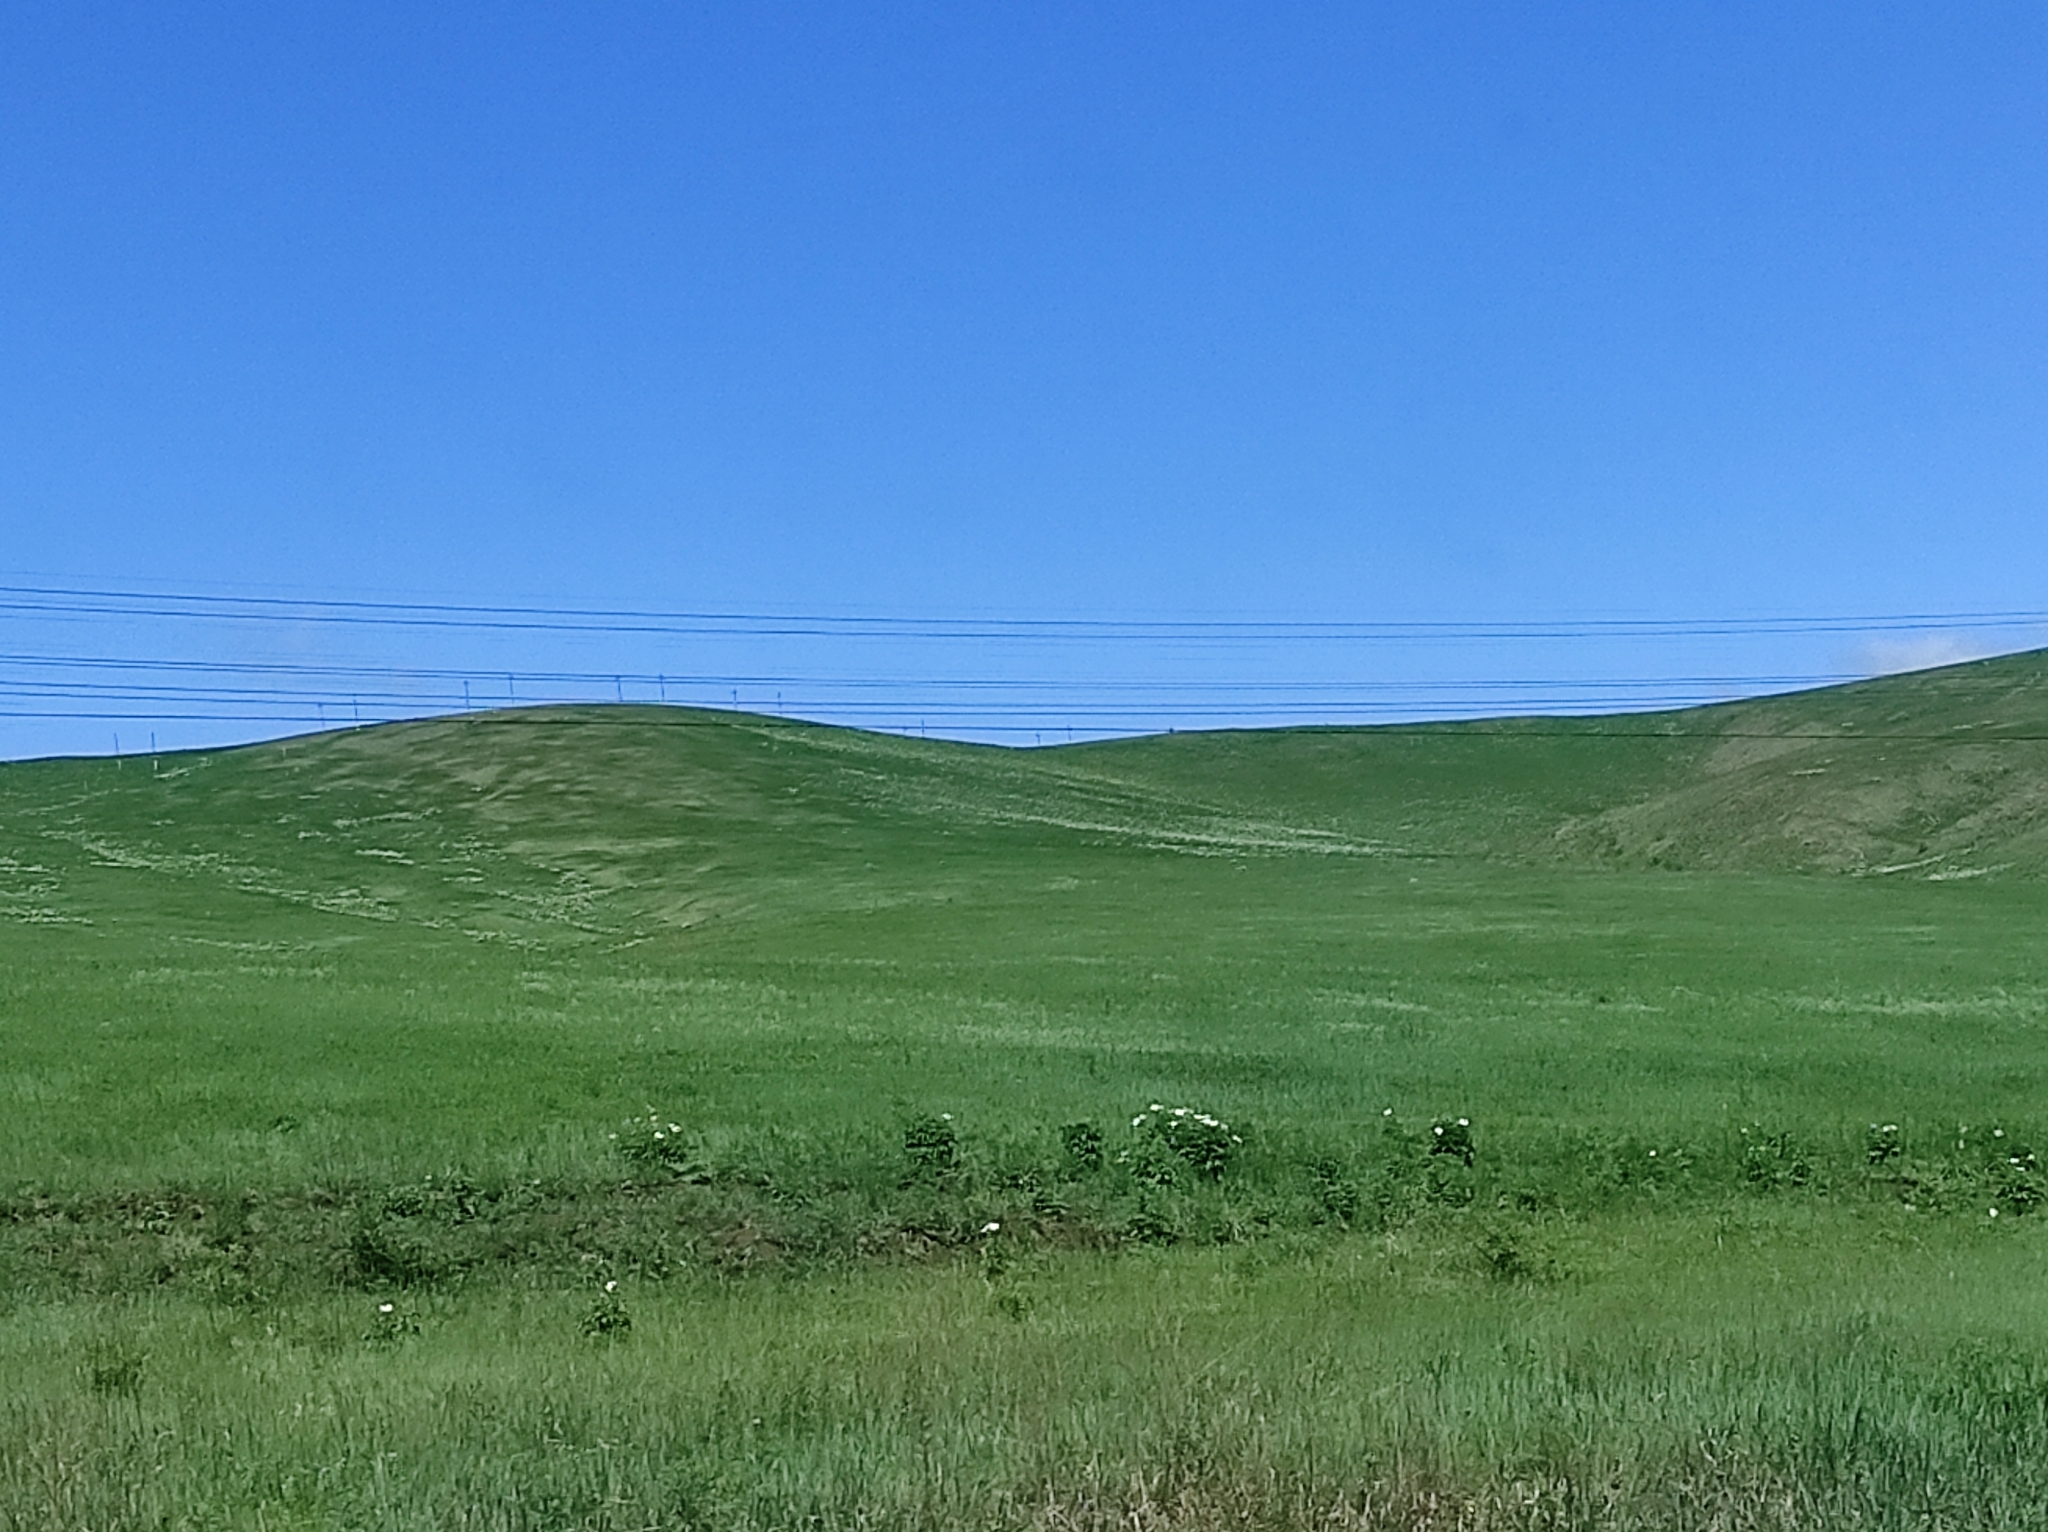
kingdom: Plantae
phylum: Tracheophyta
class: Magnoliopsida
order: Saxifragales
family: Paeoniaceae
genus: Paeonia
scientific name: Paeonia lactiflora
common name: Chinese peony
